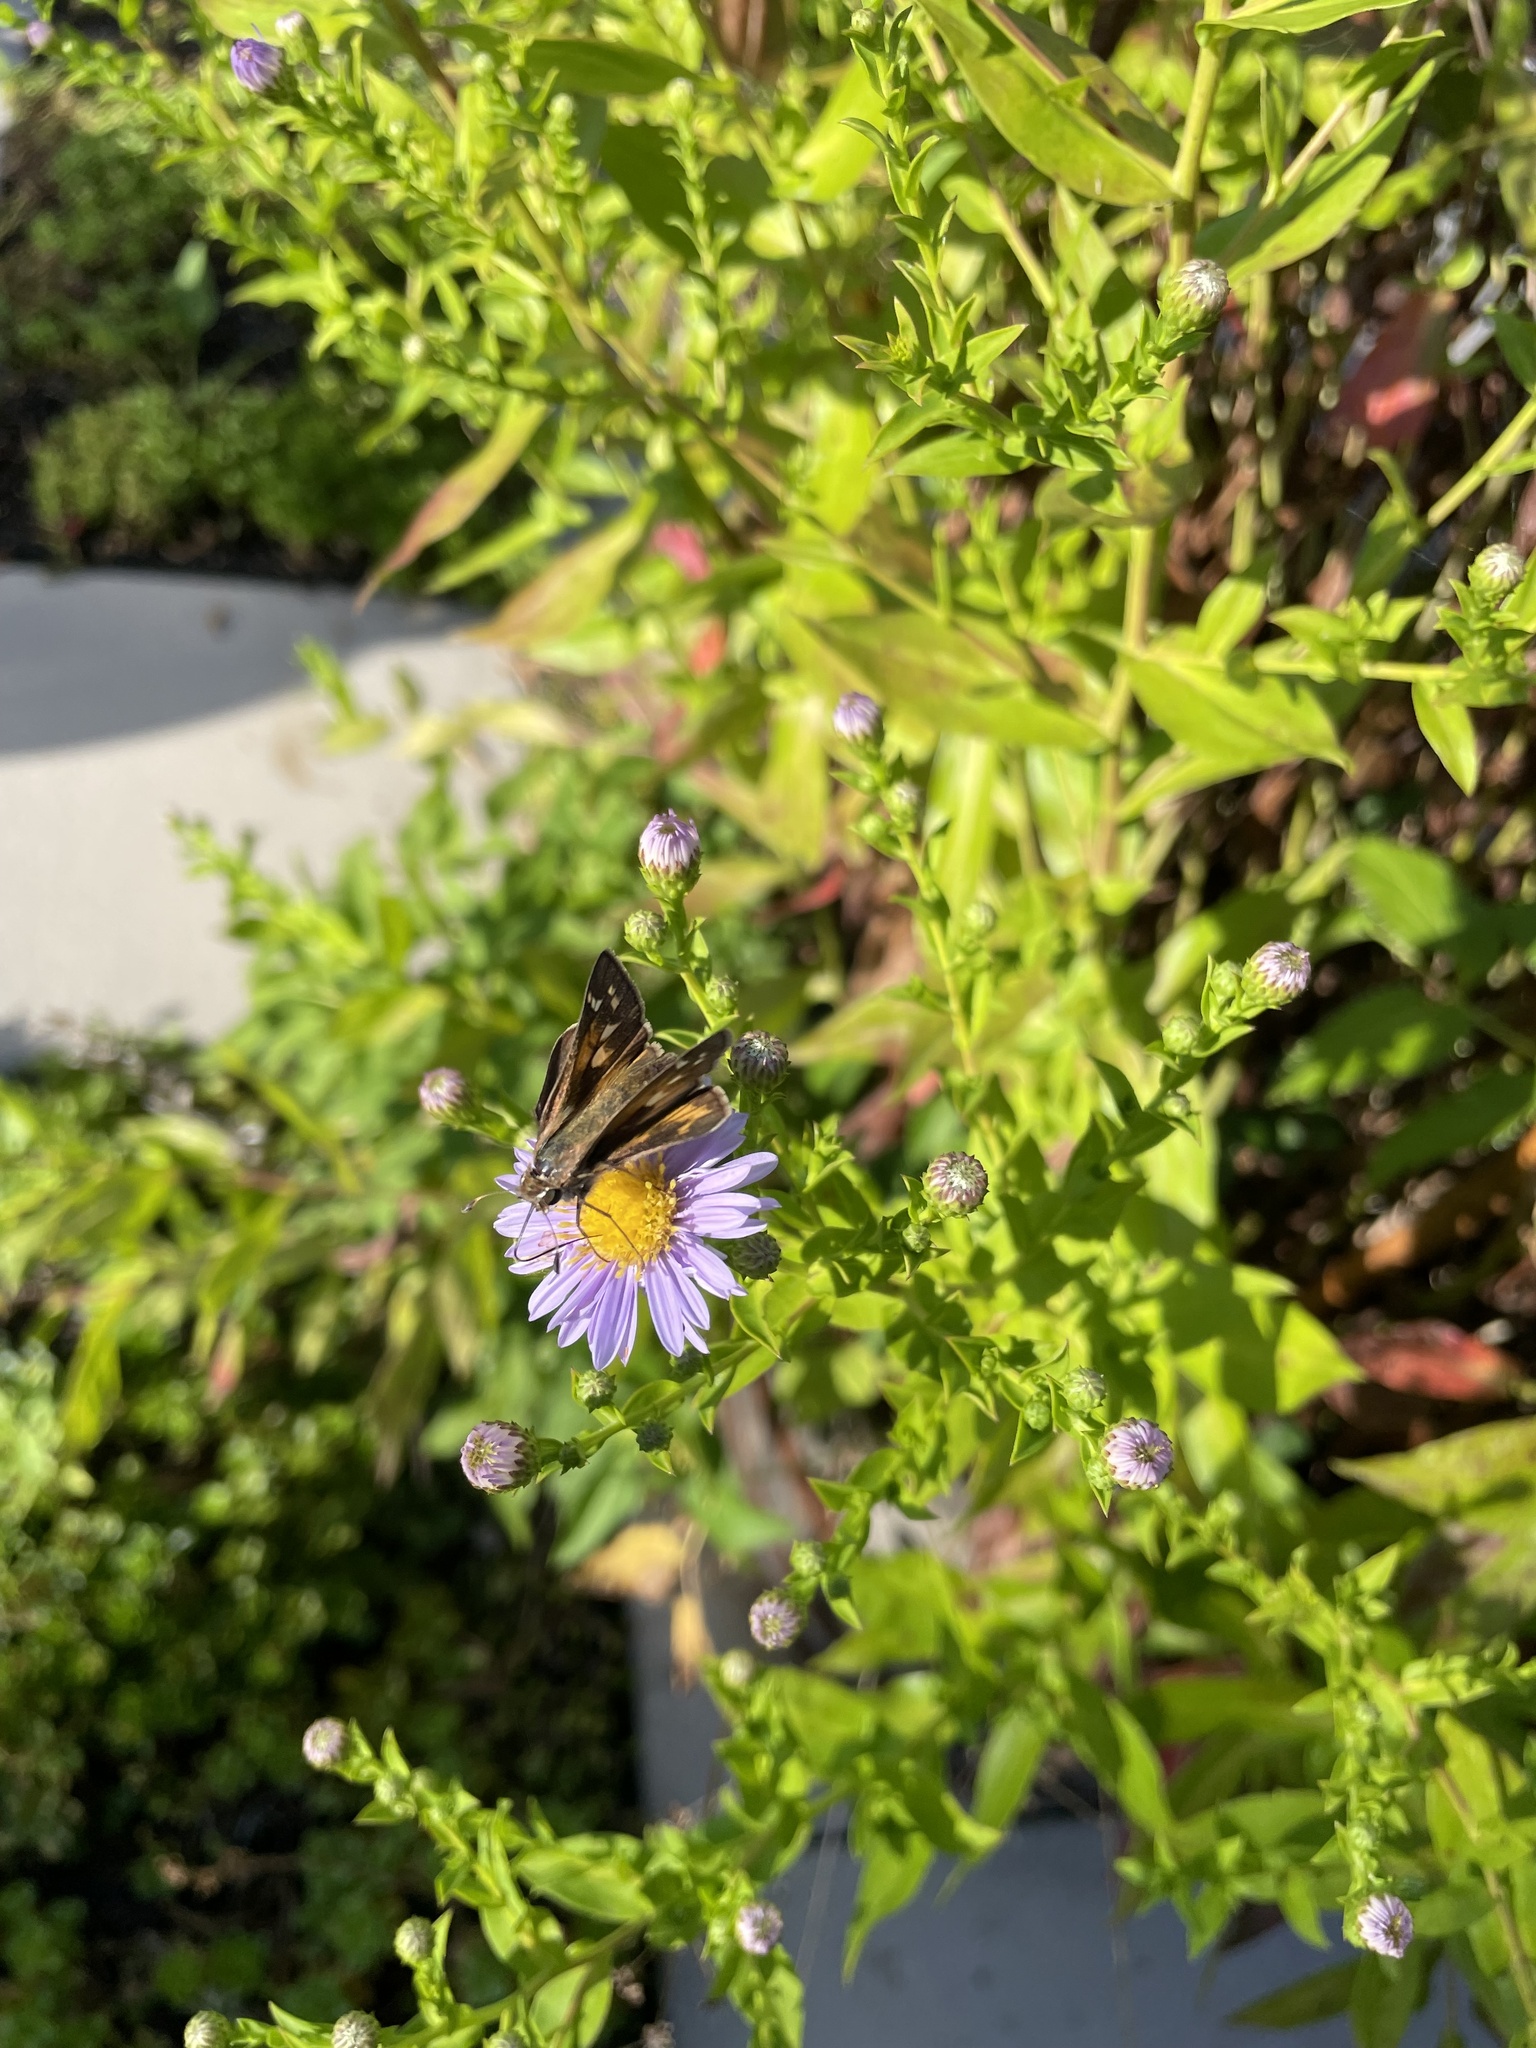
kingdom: Animalia
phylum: Arthropoda
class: Insecta
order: Lepidoptera
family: Hesperiidae
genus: Atalopedes
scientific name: Atalopedes
